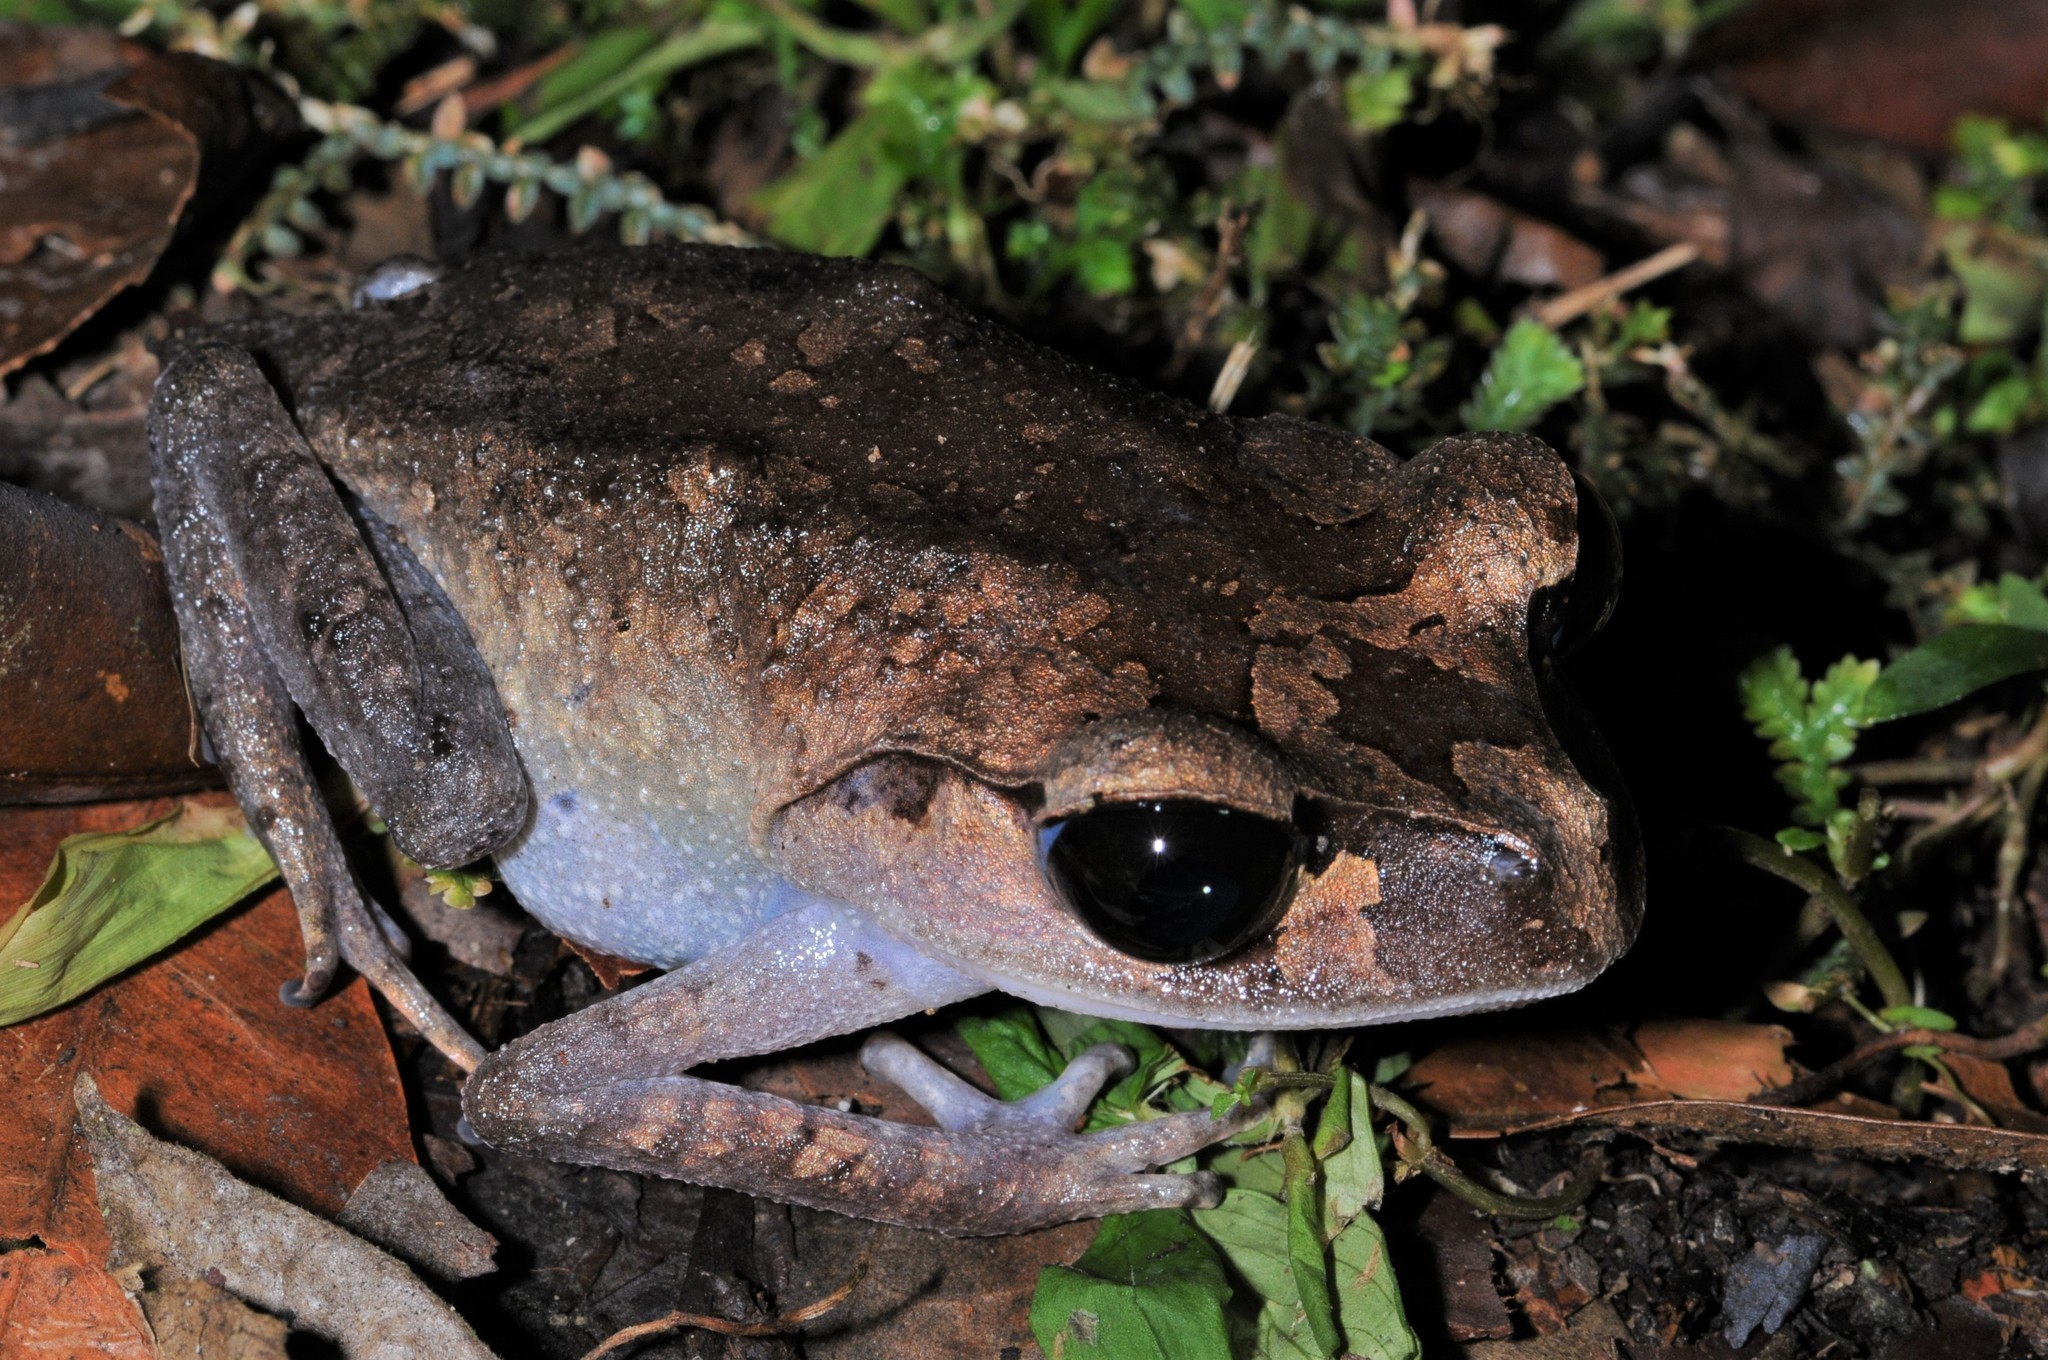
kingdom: Animalia
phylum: Chordata
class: Amphibia
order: Anura
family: Megophryidae
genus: Leptobrachium
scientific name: Leptobrachium abbotti
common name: Abbott’s litter frog
